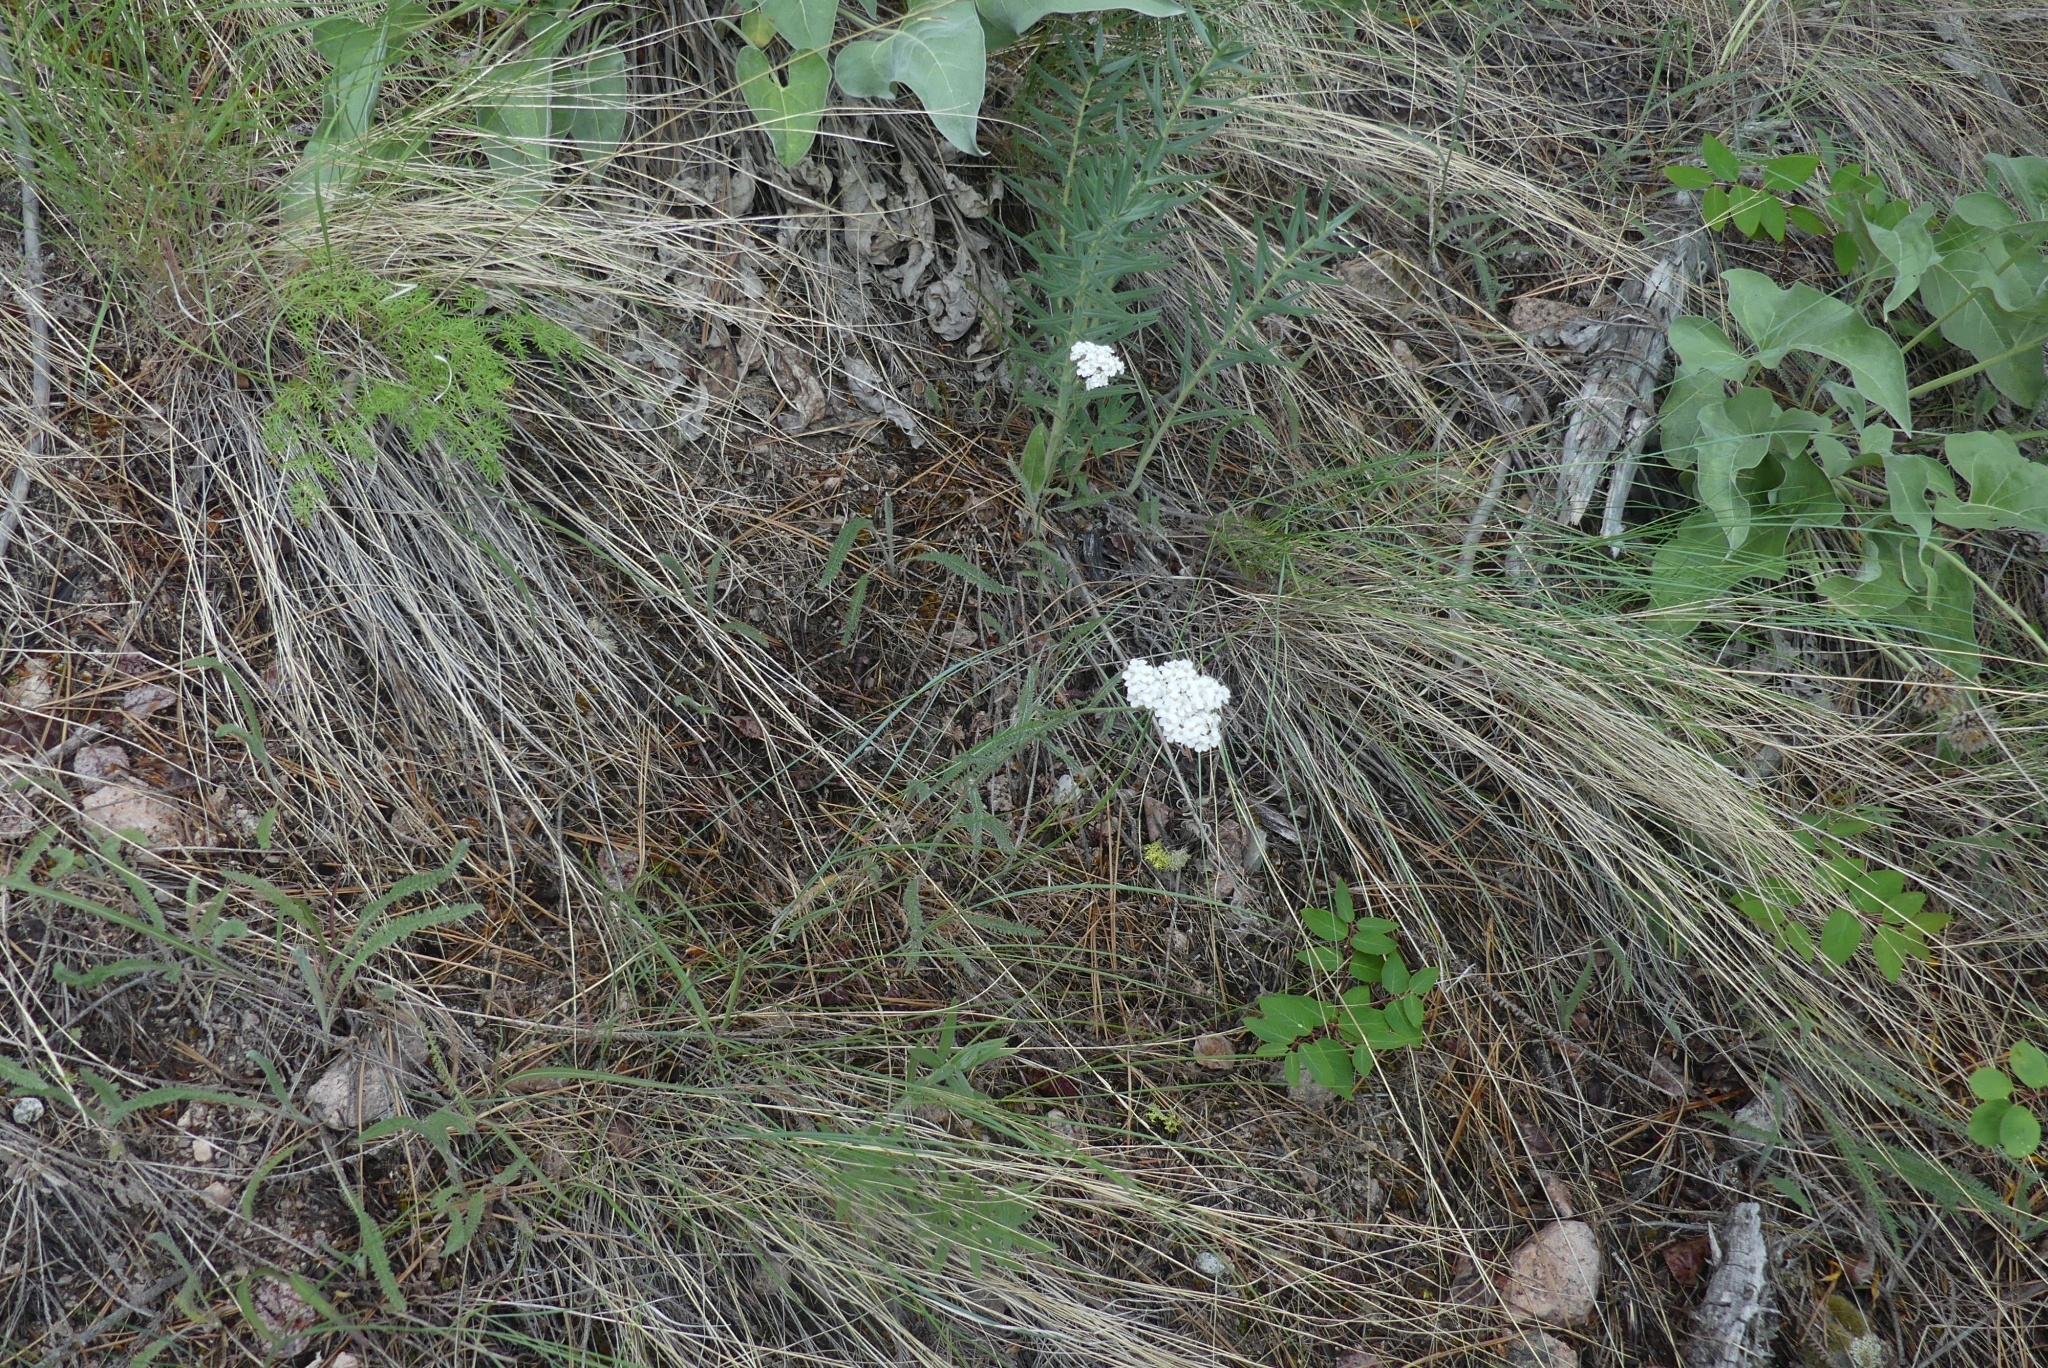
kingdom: Plantae
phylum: Tracheophyta
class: Magnoliopsida
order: Asterales
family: Asteraceae
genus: Achillea
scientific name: Achillea millefolium
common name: Yarrow
